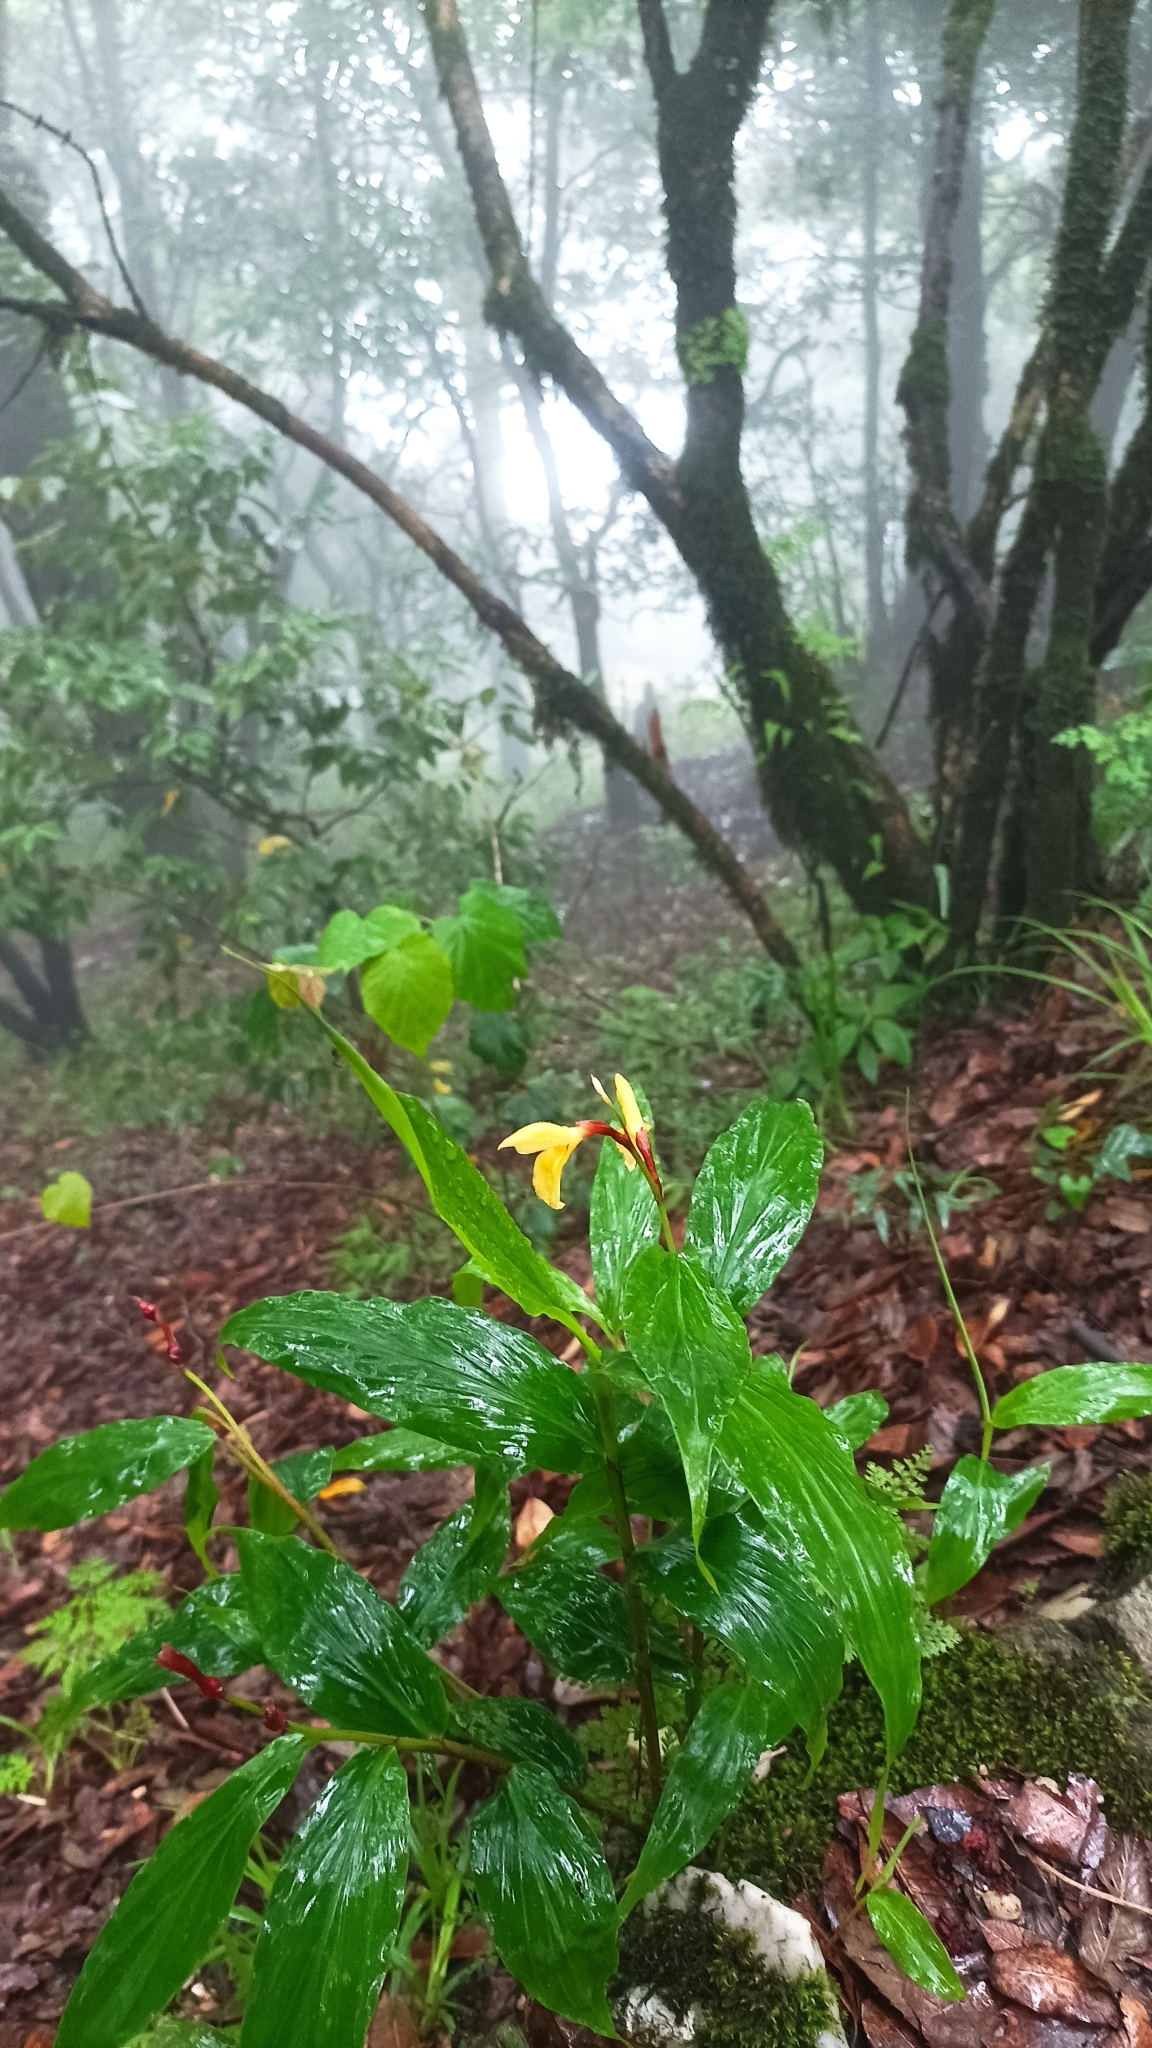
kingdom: Plantae
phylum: Tracheophyta
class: Liliopsida
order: Zingiberales
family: Zingiberaceae
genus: Cautleya
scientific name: Cautleya spicata
